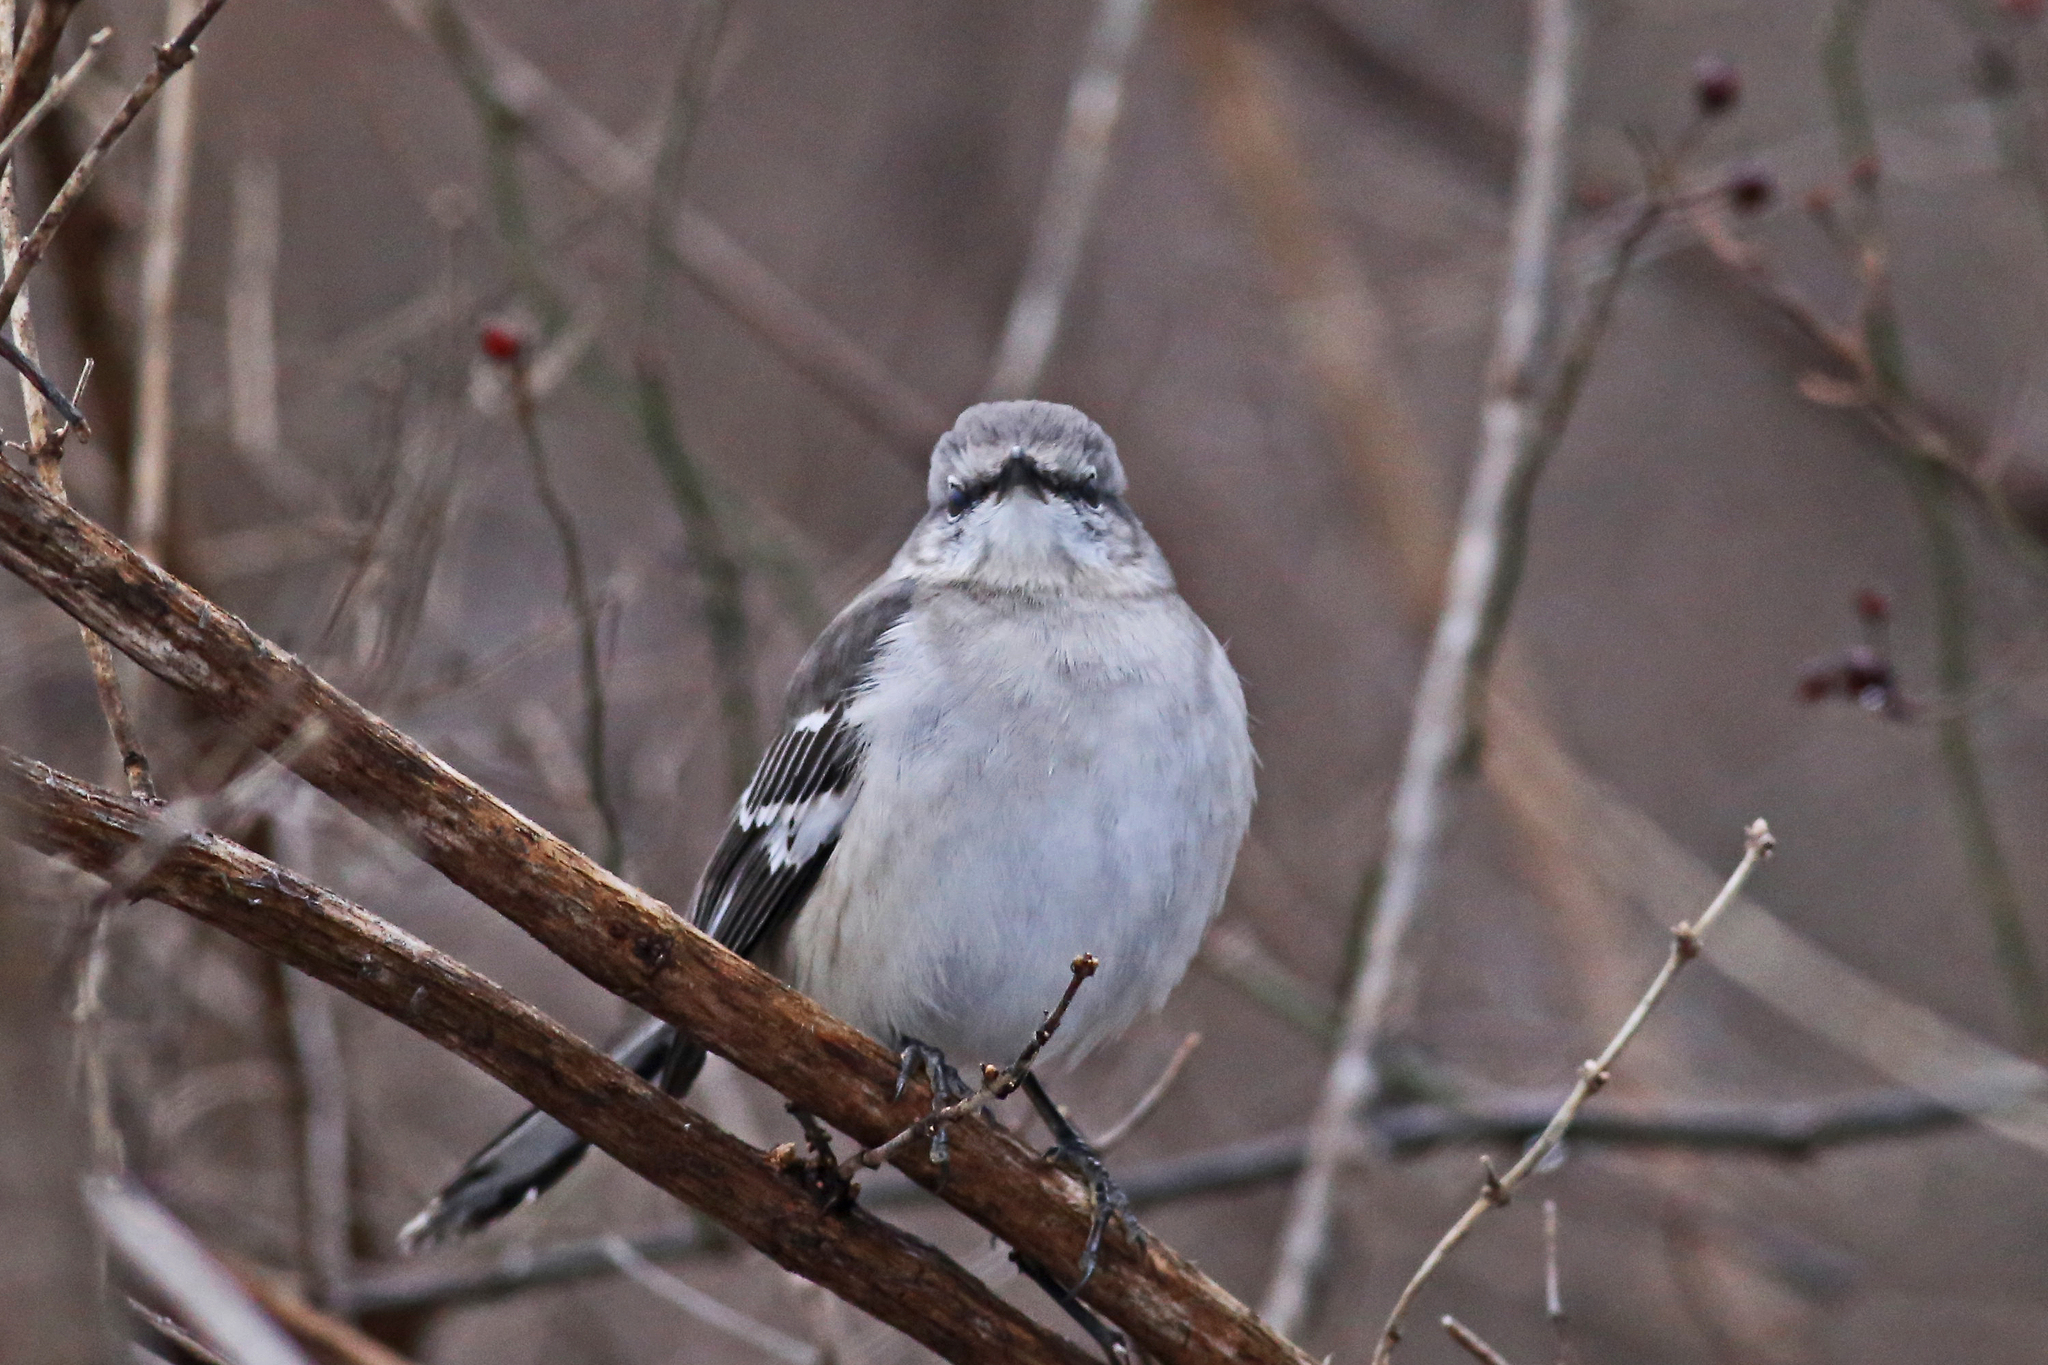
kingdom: Animalia
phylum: Chordata
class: Aves
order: Passeriformes
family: Mimidae
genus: Mimus
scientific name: Mimus polyglottos
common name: Northern mockingbird
